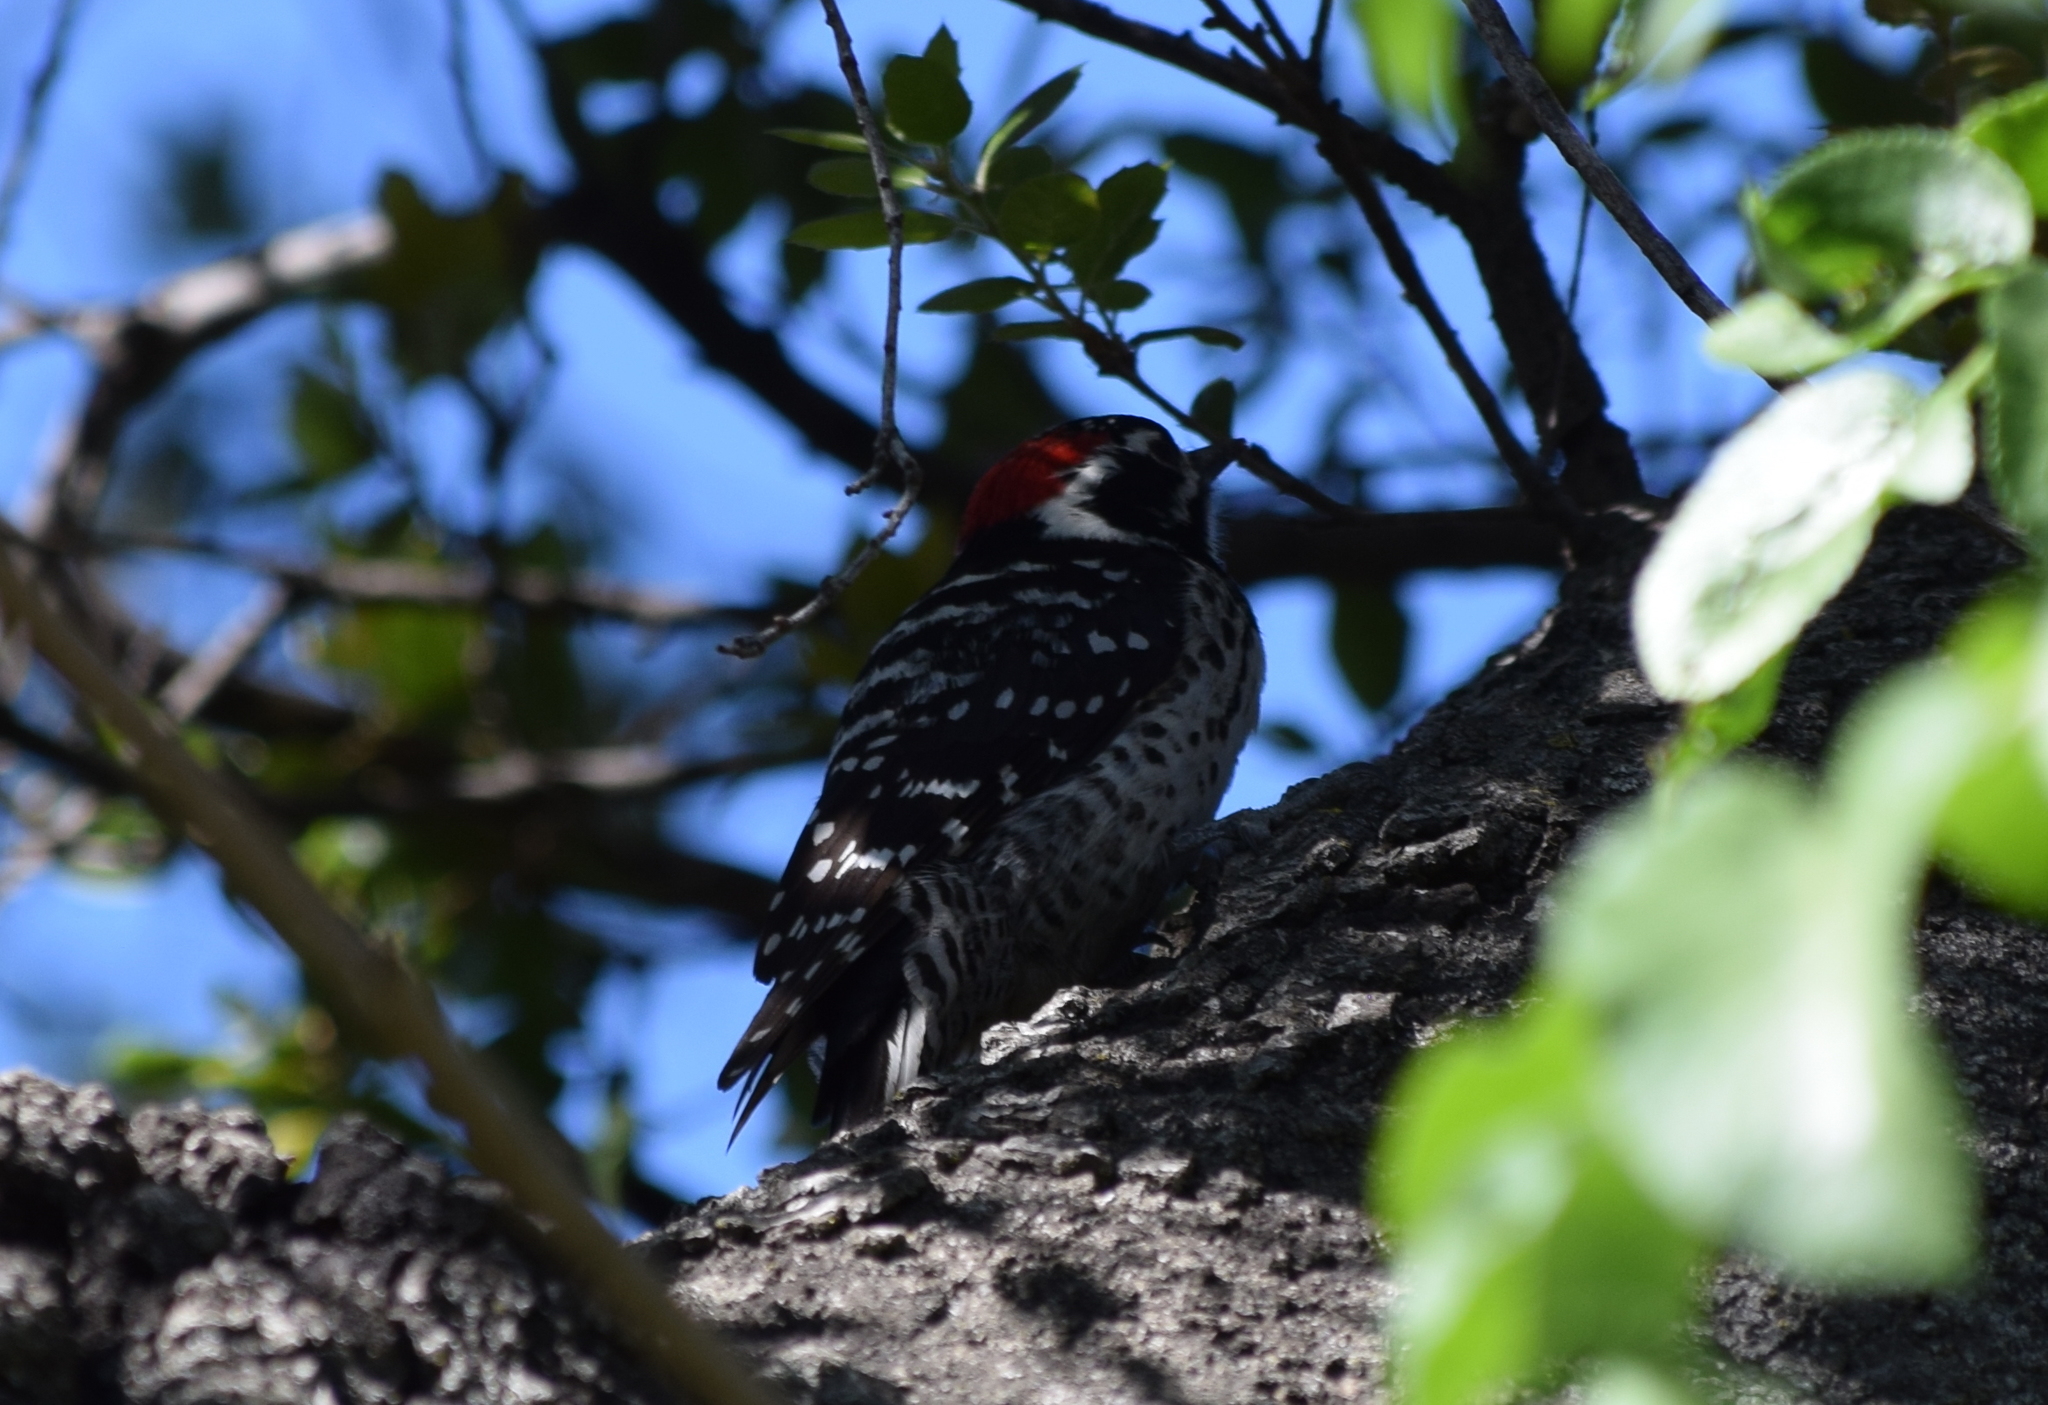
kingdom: Animalia
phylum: Chordata
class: Aves
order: Piciformes
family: Picidae
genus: Dryobates
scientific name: Dryobates nuttallii
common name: Nuttall's woodpecker
